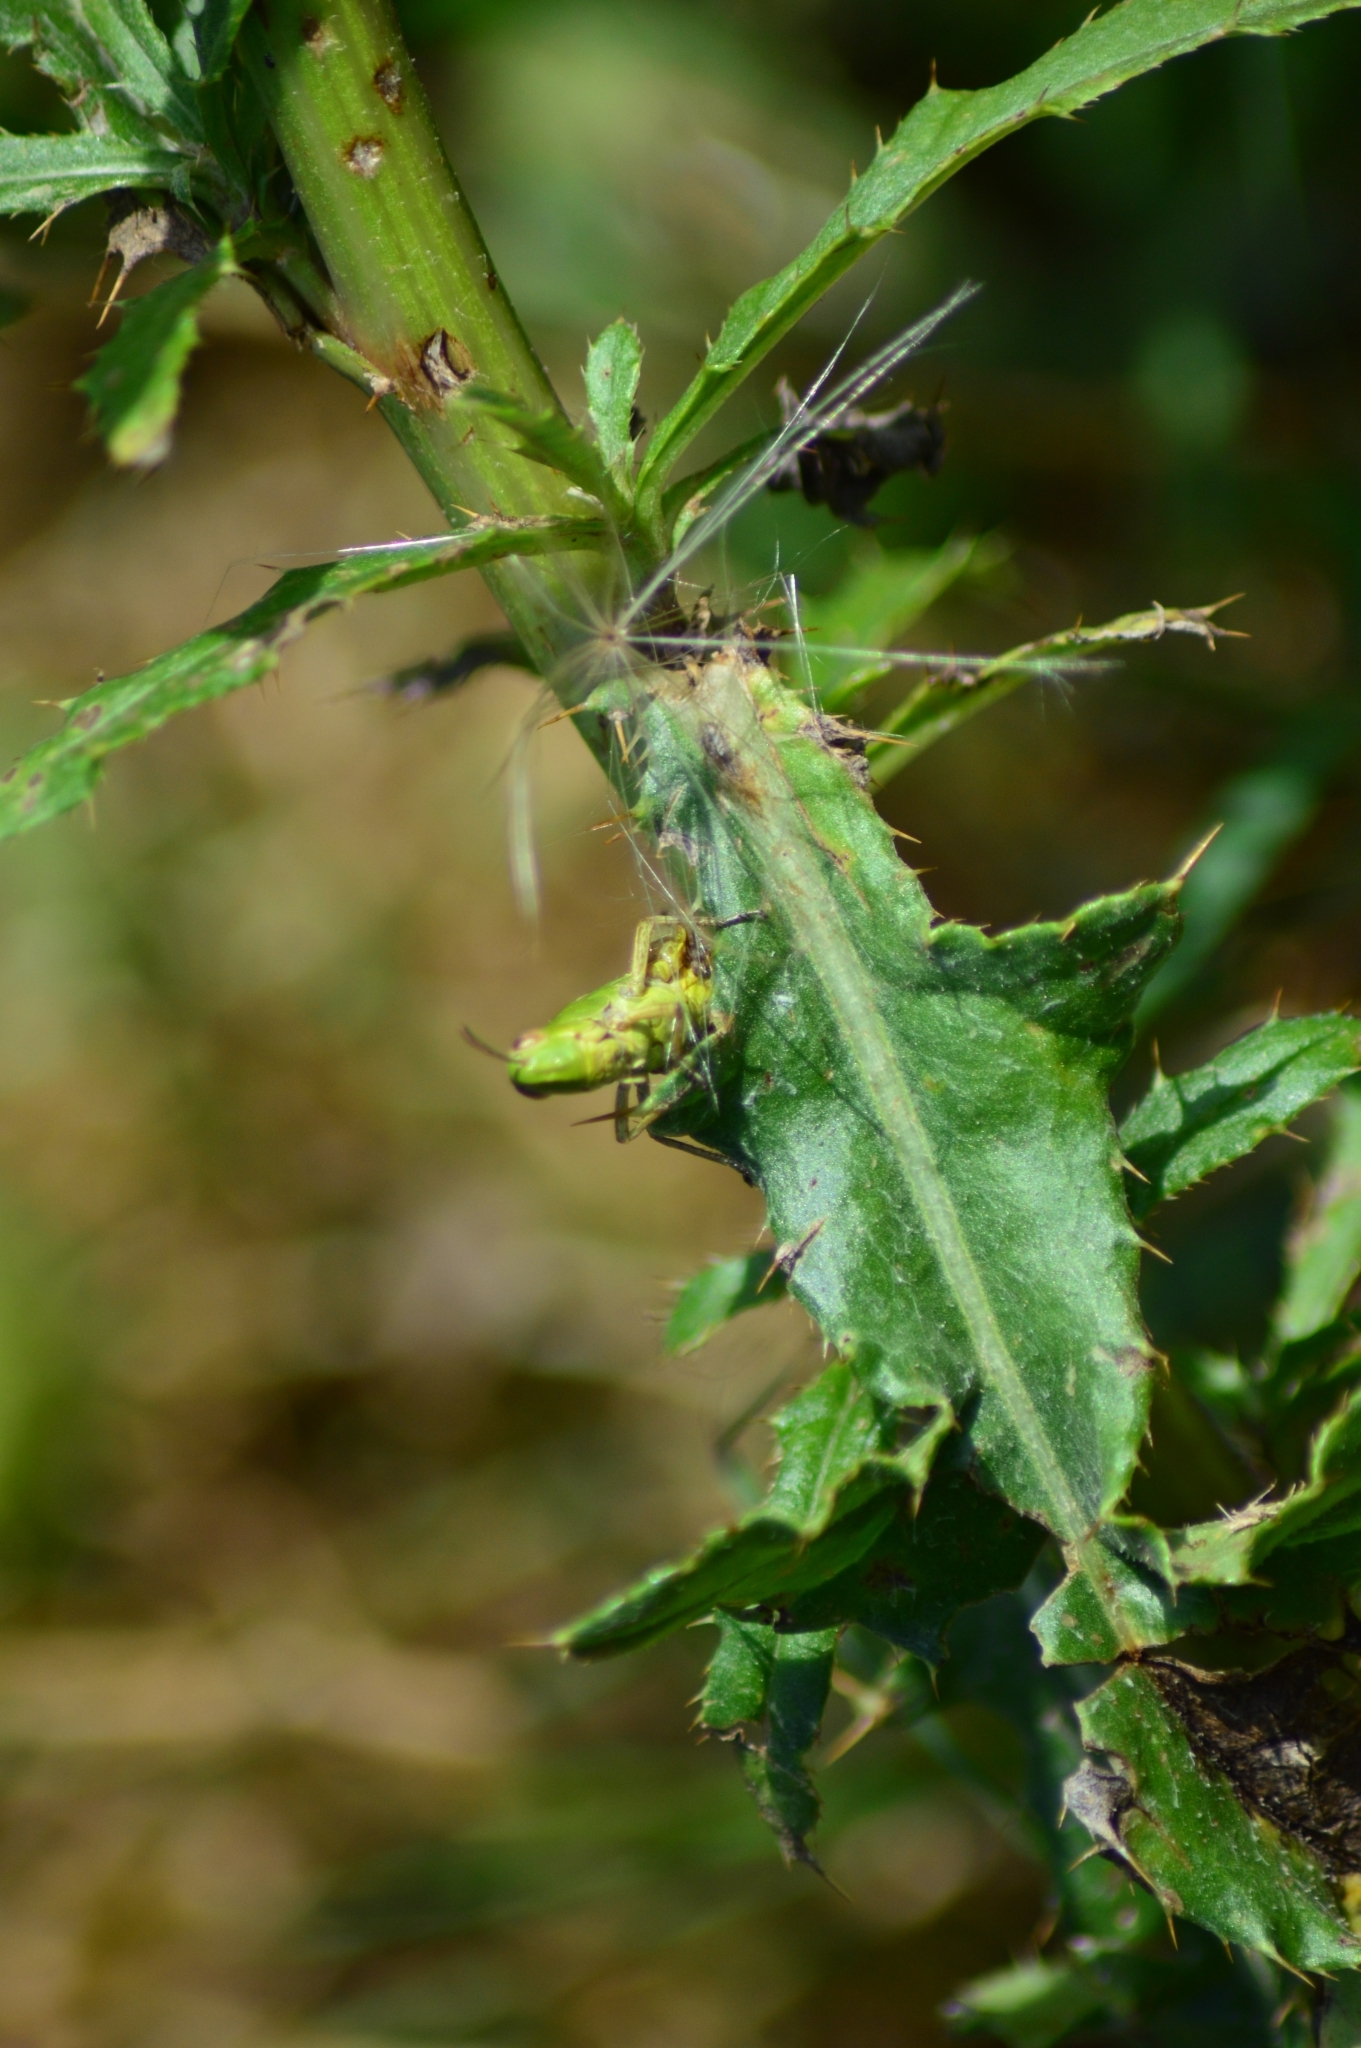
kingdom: Animalia
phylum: Arthropoda
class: Insecta
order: Orthoptera
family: Acrididae
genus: Pseudochorthippus
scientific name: Pseudochorthippus parallelus
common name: Meadow grasshopper
